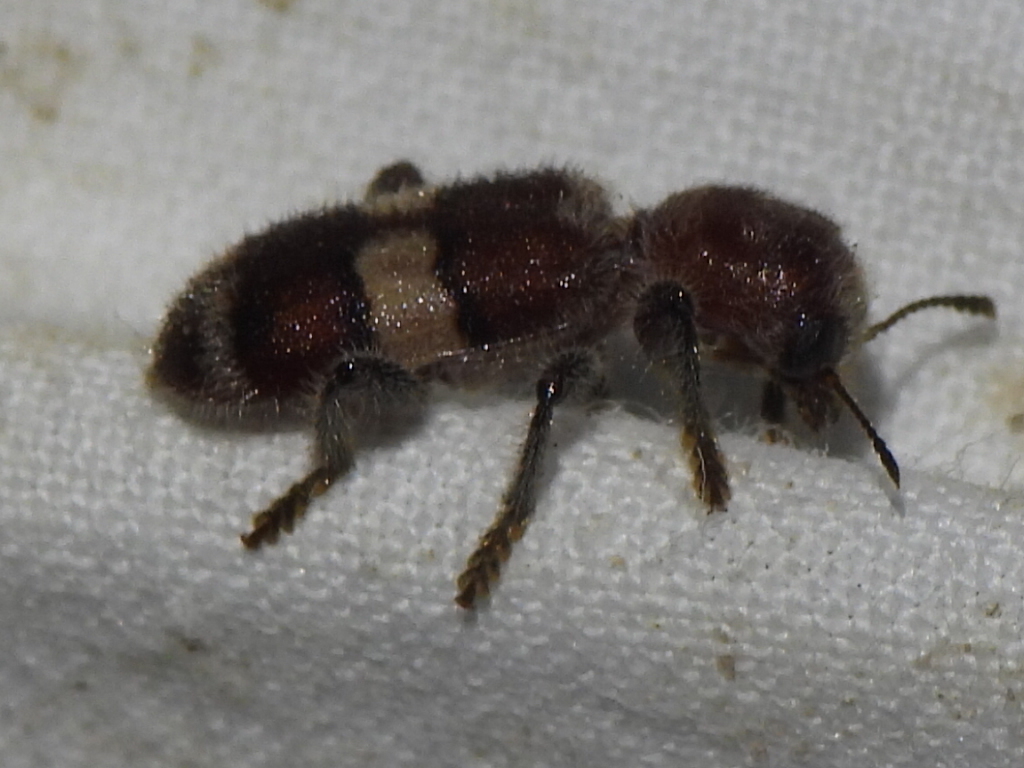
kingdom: Animalia
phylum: Arthropoda
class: Insecta
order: Coleoptera
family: Cleridae
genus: Enoclerus
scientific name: Enoclerus quadrisignatus
